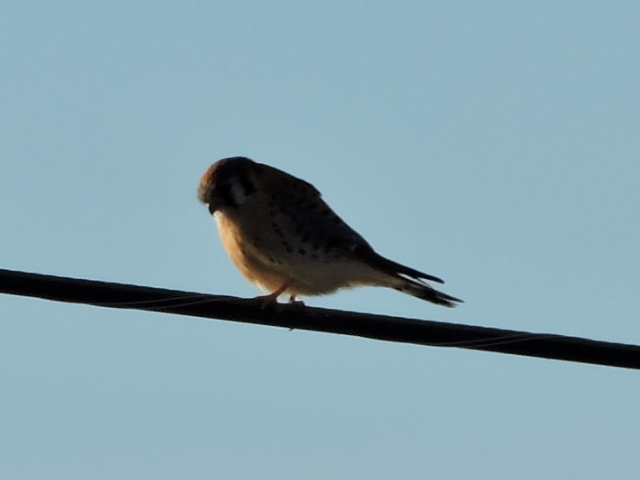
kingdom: Animalia
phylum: Chordata
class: Aves
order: Falconiformes
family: Falconidae
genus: Falco
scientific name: Falco sparverius
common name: American kestrel
